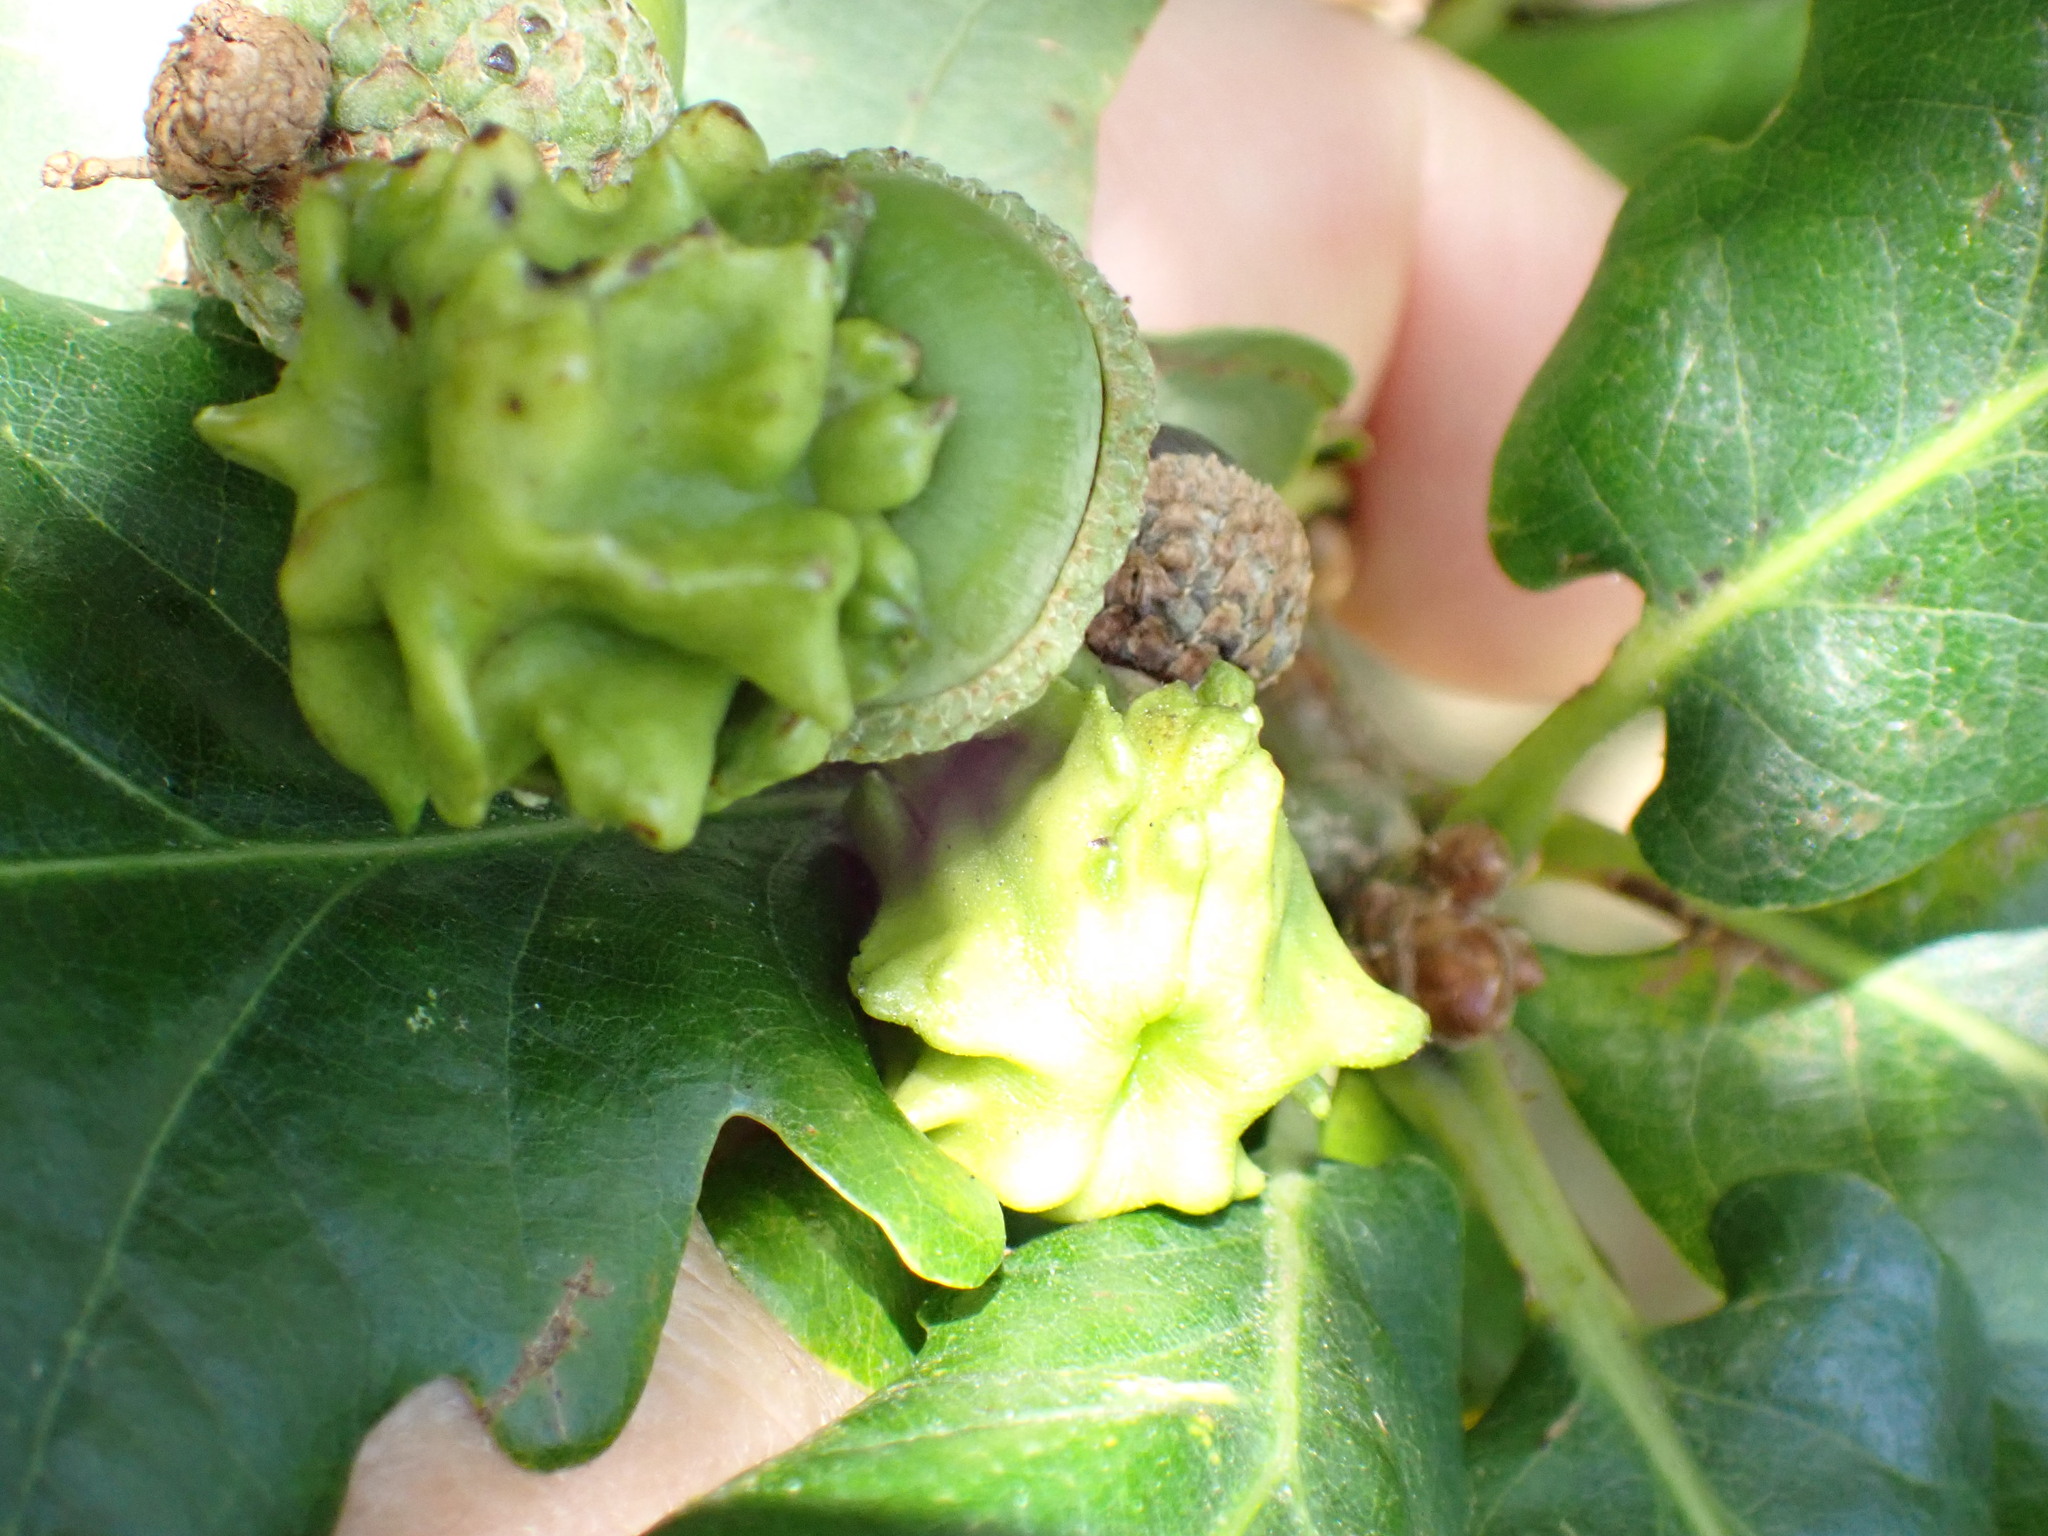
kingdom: Animalia
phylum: Arthropoda
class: Insecta
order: Hymenoptera
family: Cynipidae
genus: Andricus
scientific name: Andricus quercuscalicis
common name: Knopper gall
